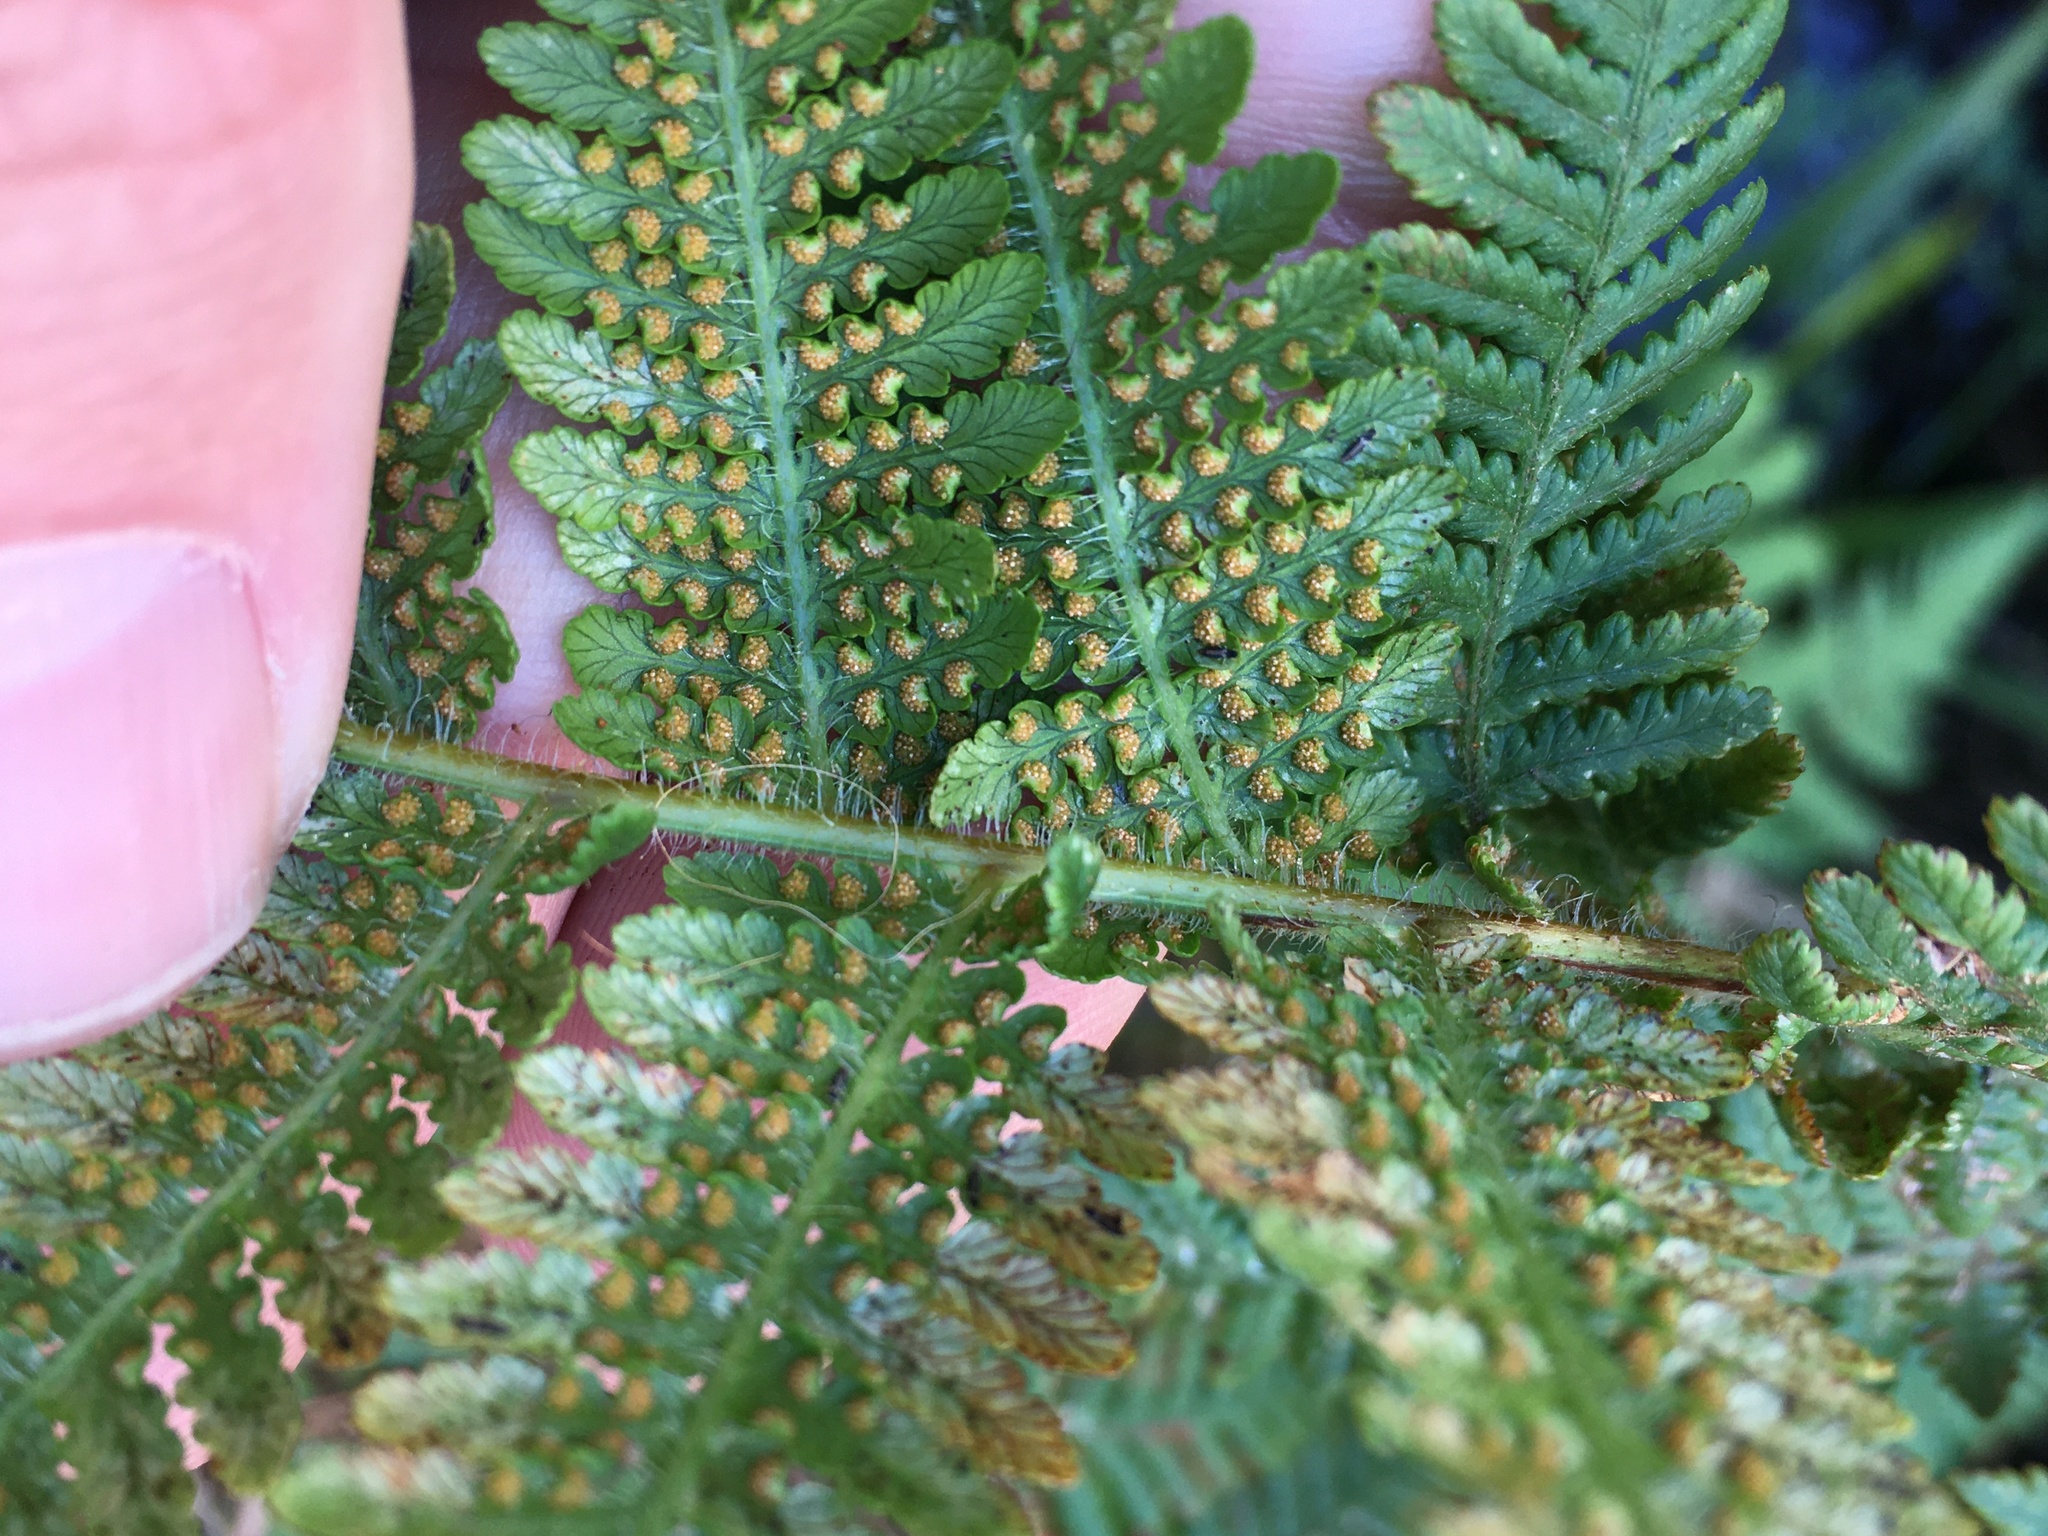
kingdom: Plantae
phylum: Tracheophyta
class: Polypodiopsida
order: Polypodiales
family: Dennstaedtiaceae
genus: Hypolepis
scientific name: Hypolepis dicksonioides
